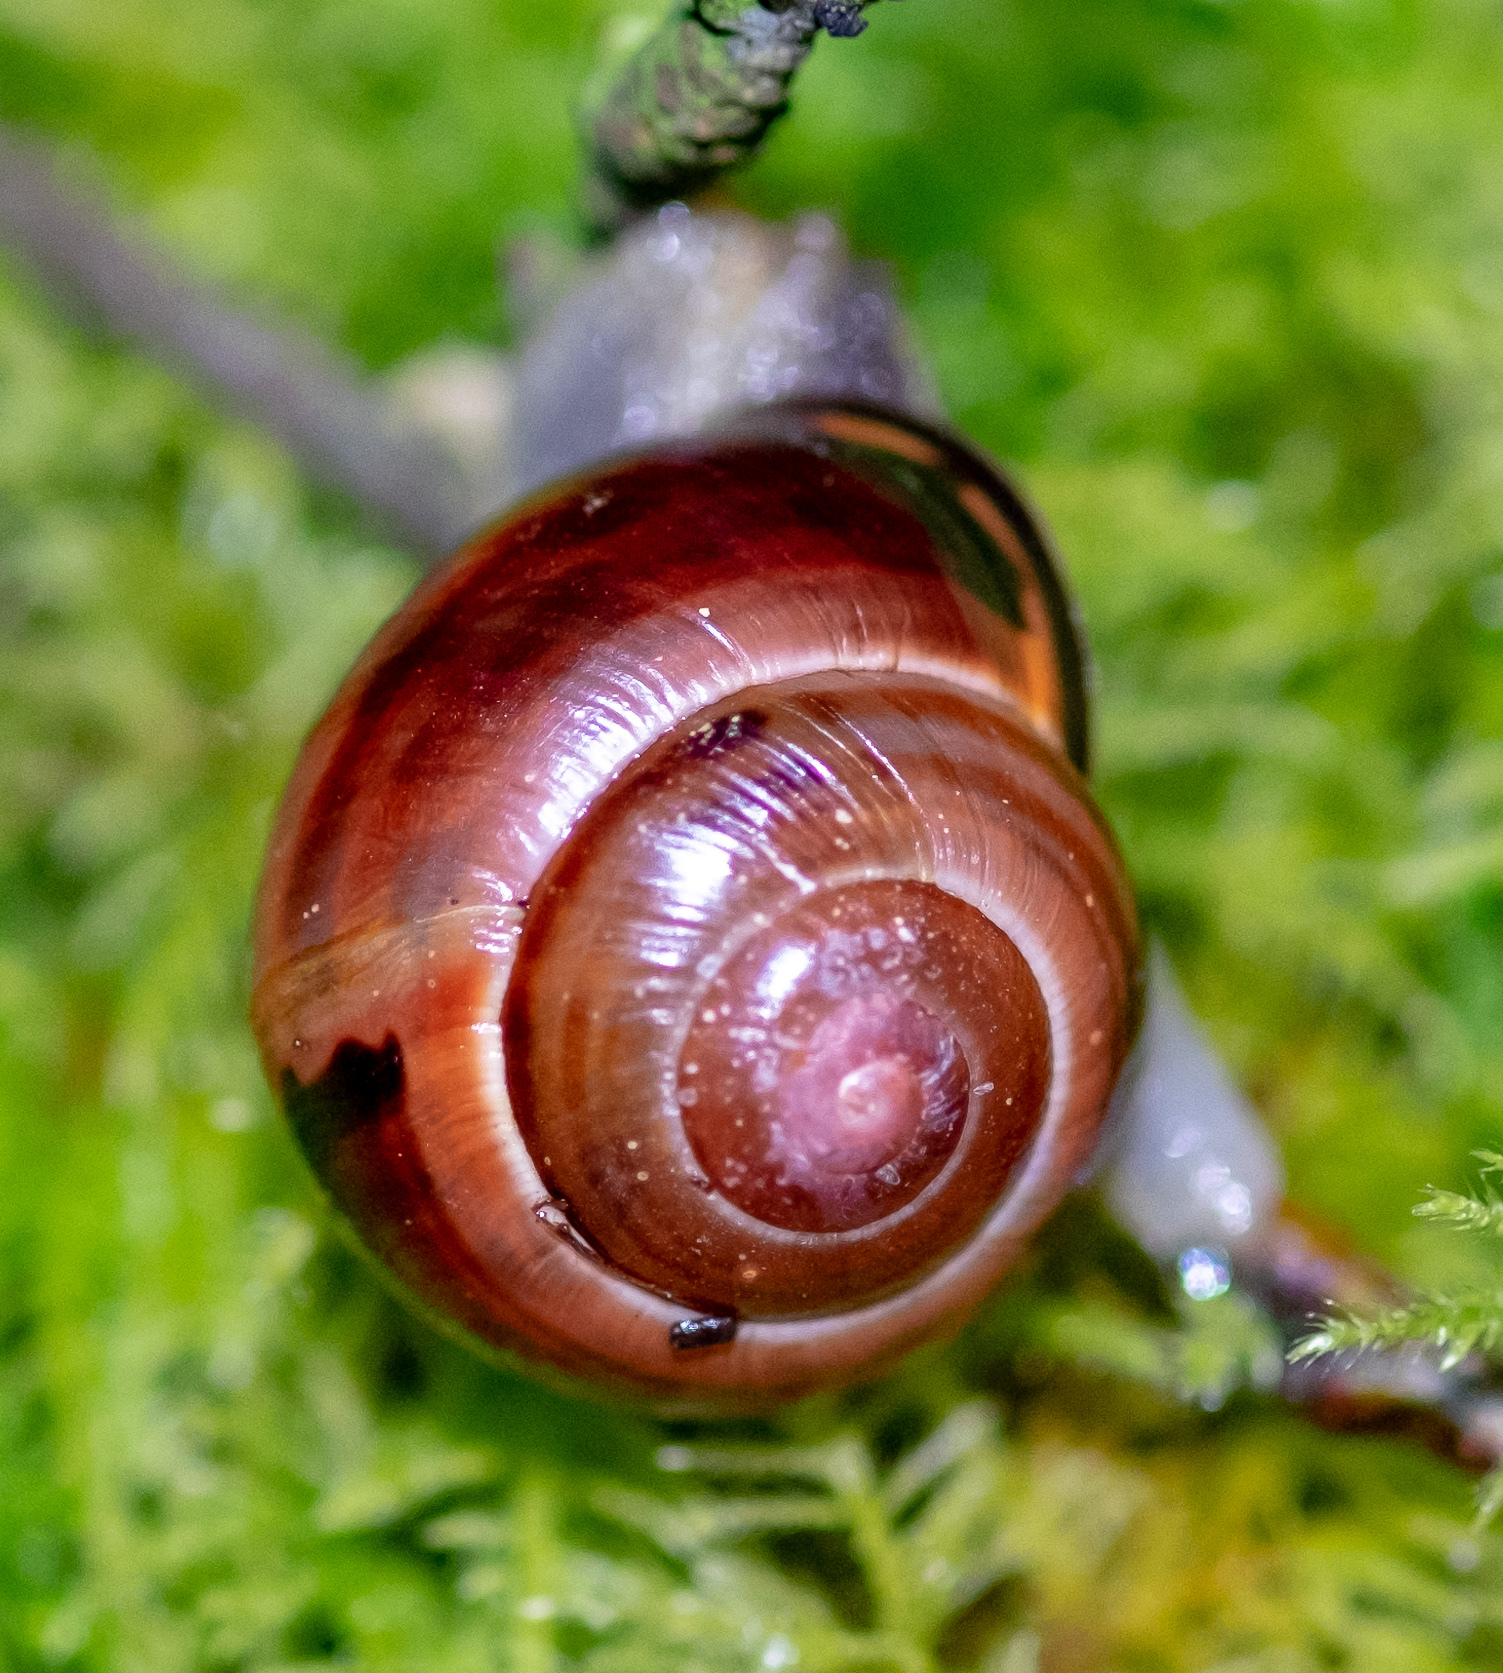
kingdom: Animalia
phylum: Mollusca
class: Gastropoda
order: Stylommatophora
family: Helicidae
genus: Cepaea
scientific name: Cepaea nemoralis
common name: Grovesnail
